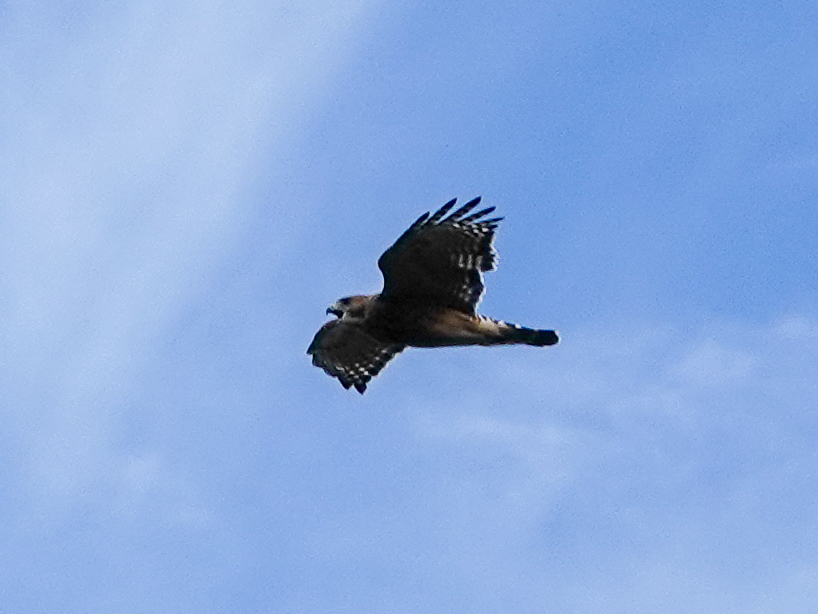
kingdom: Animalia
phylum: Chordata
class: Aves
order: Accipitriformes
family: Accipitridae
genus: Buteo
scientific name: Buteo lineatus
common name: Red-shouldered hawk
